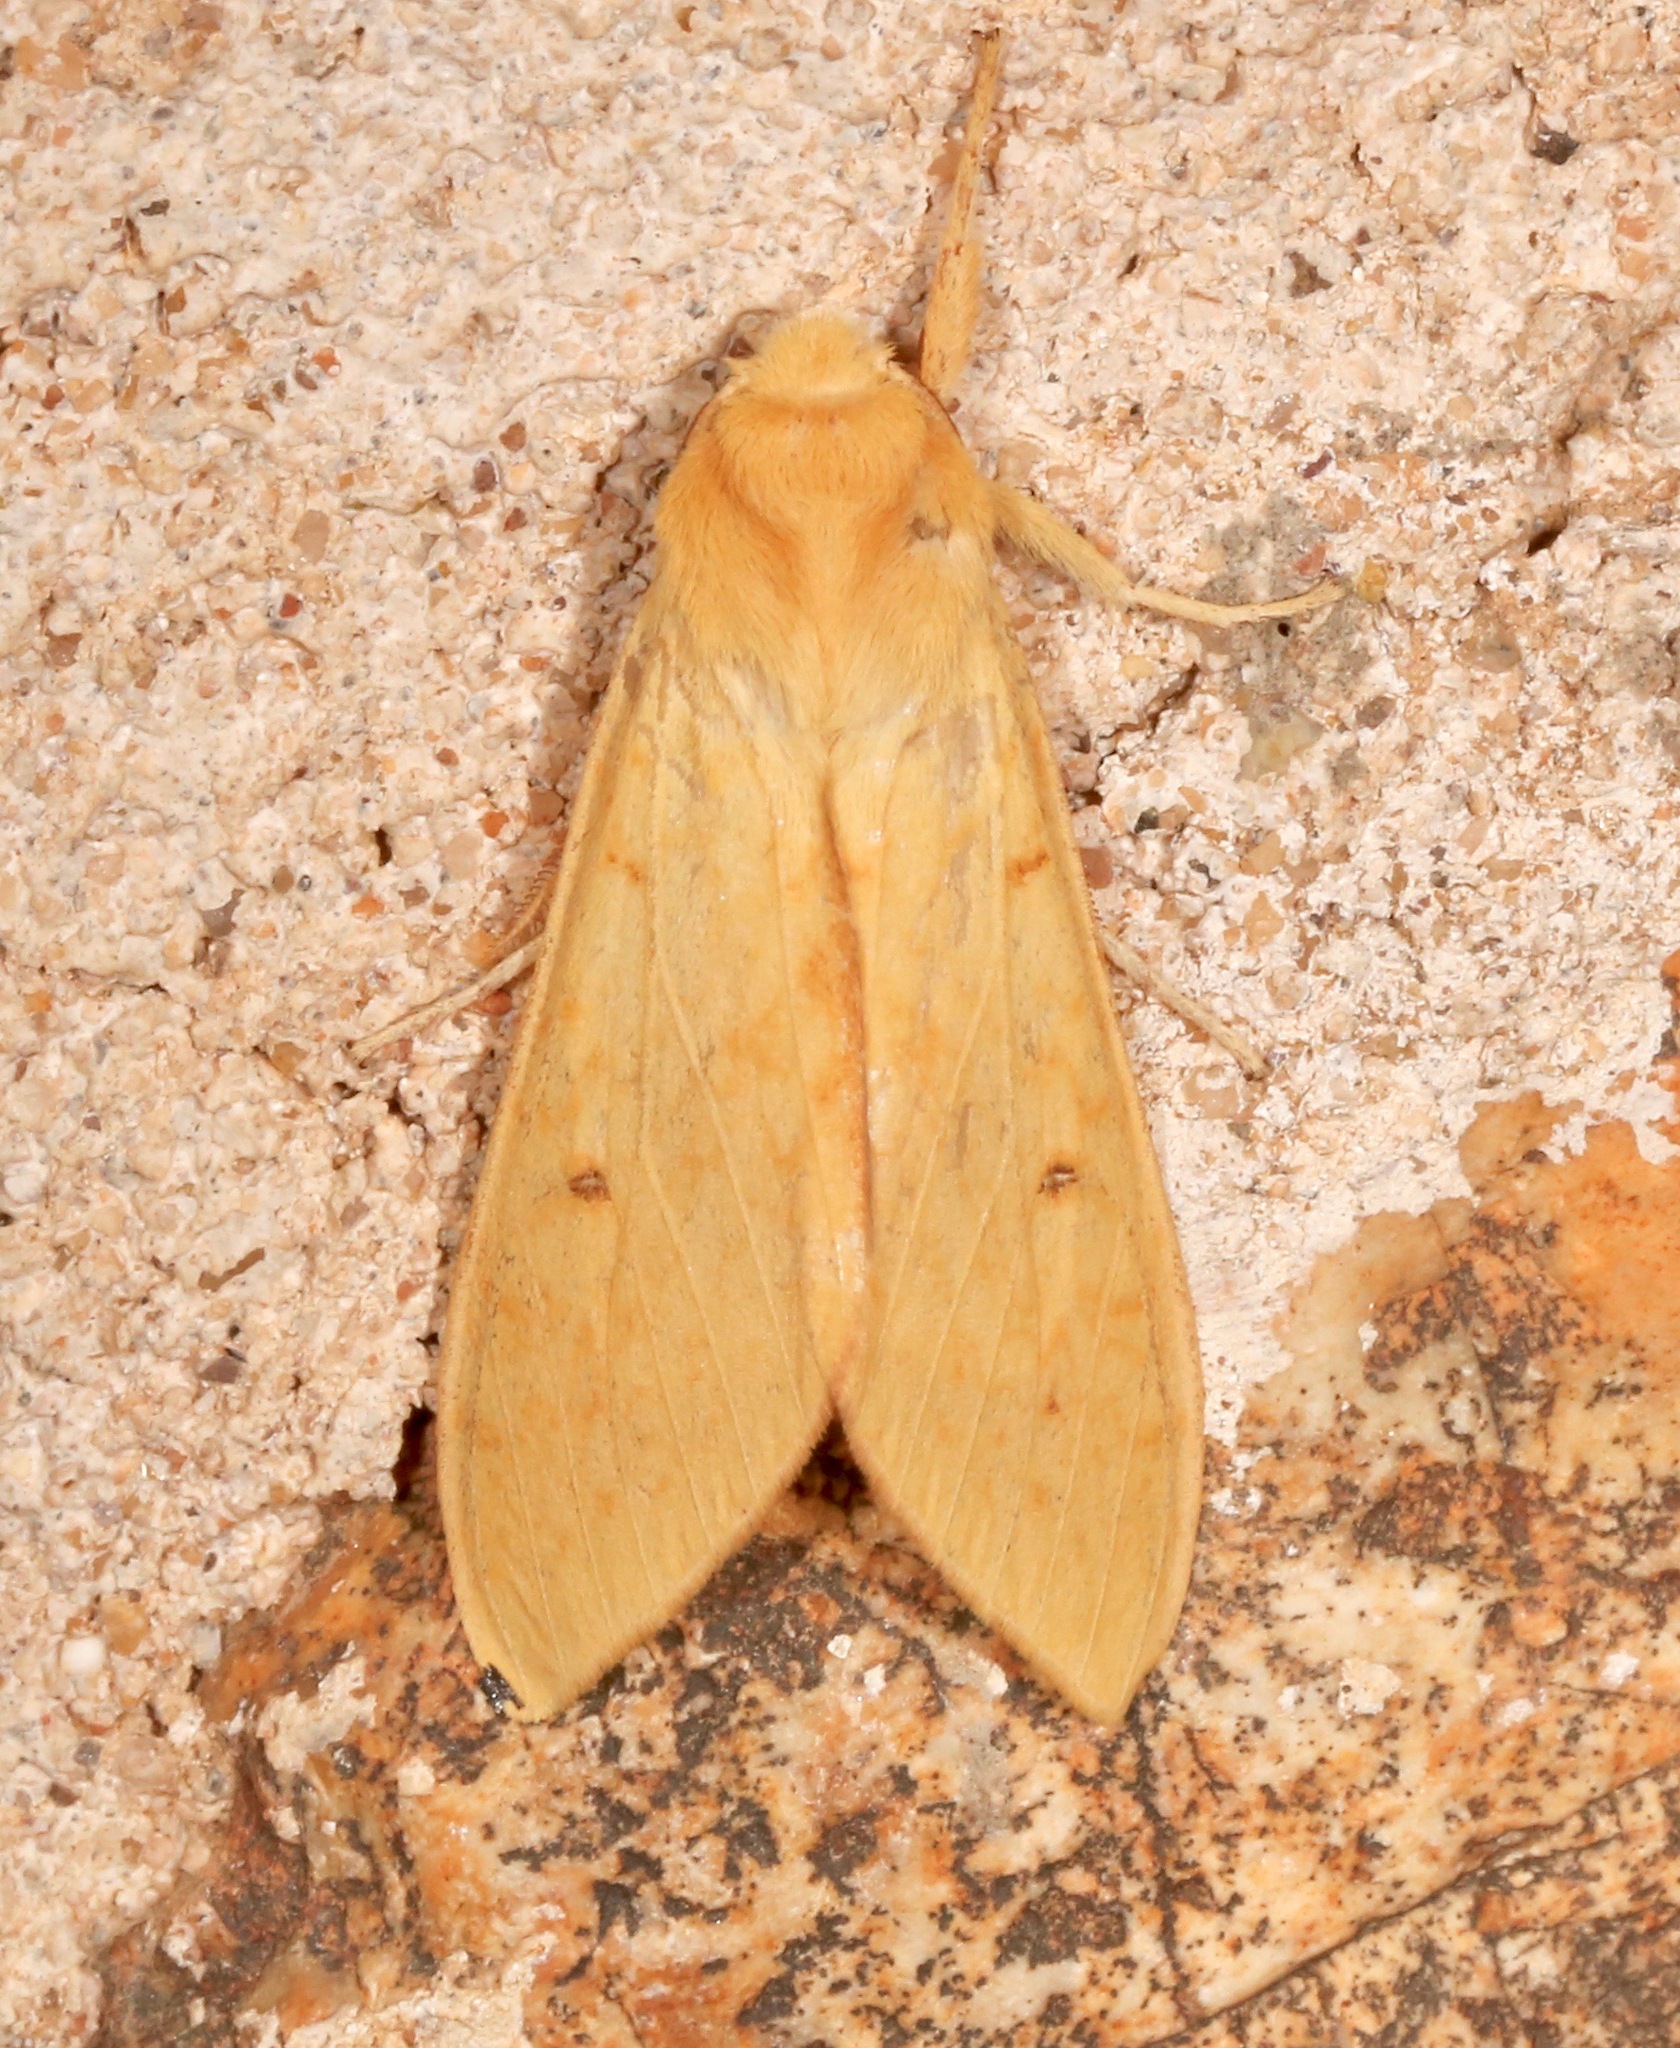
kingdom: Animalia
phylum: Arthropoda
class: Insecta
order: Lepidoptera
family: Erebidae
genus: Lophocampa
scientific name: Lophocampa pura
